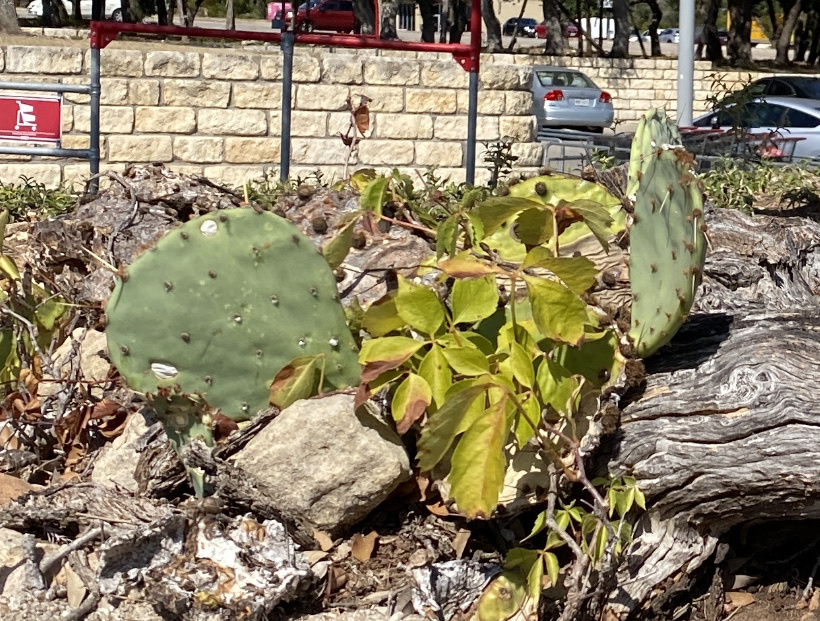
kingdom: Plantae
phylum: Tracheophyta
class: Magnoliopsida
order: Vitales
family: Vitaceae
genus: Parthenocissus
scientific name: Parthenocissus quinquefolia
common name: Virginia-creeper
